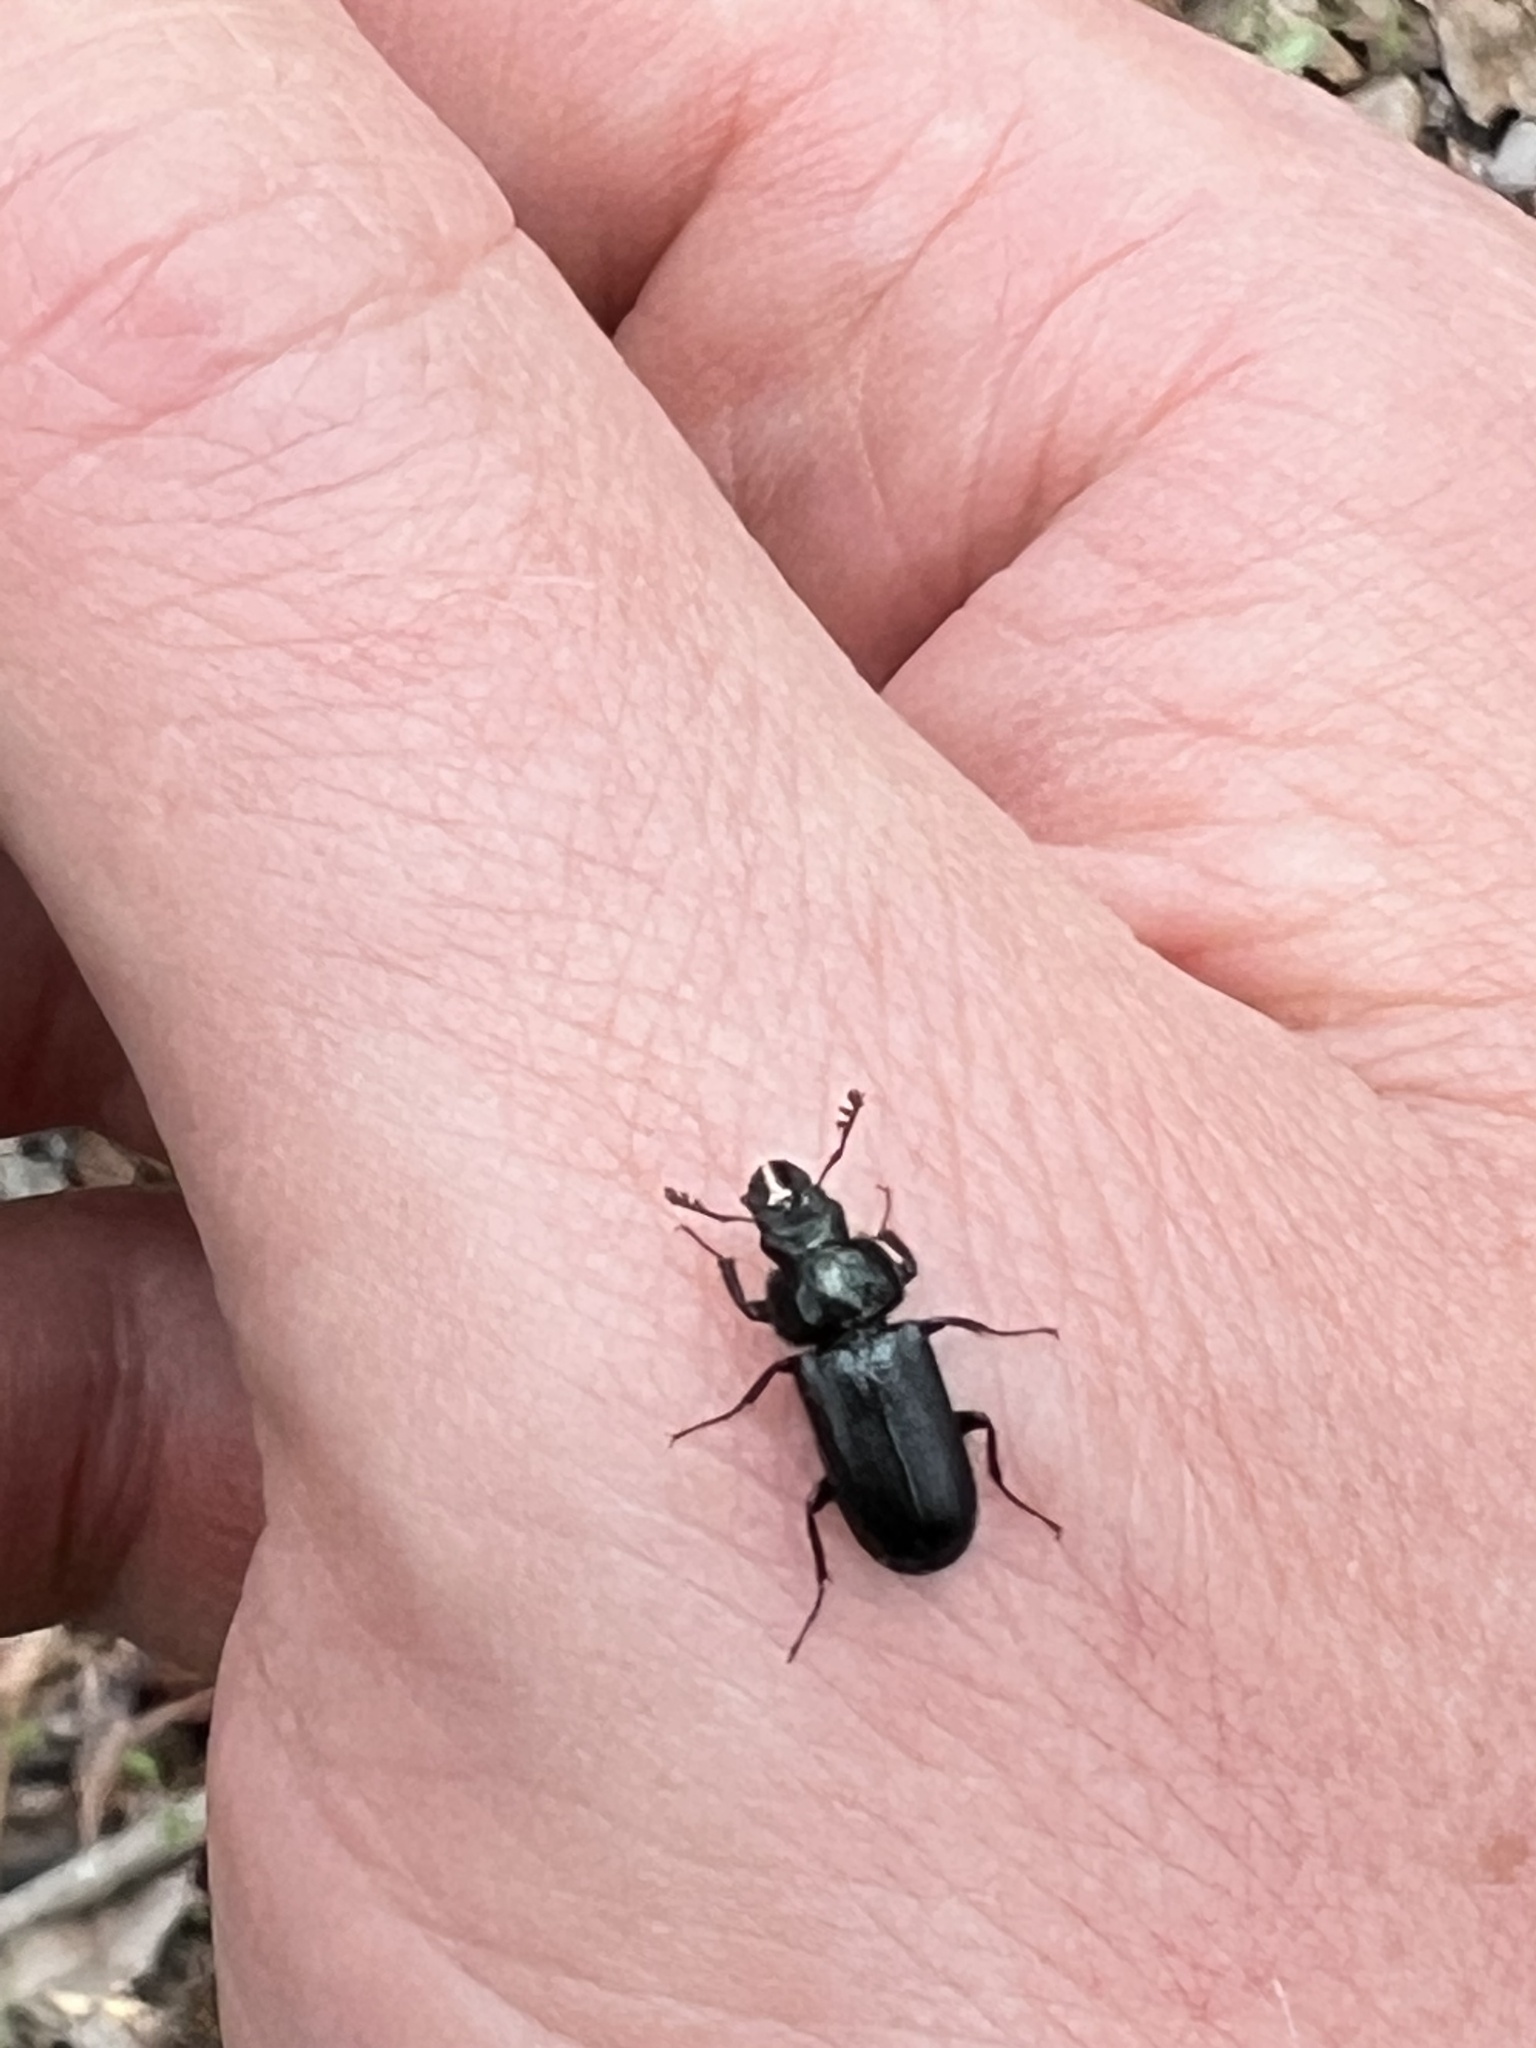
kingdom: Animalia
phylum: Arthropoda
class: Insecta
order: Coleoptera
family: Lucanidae
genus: Platycerus
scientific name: Platycerus quercus
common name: Oak stag beetle
